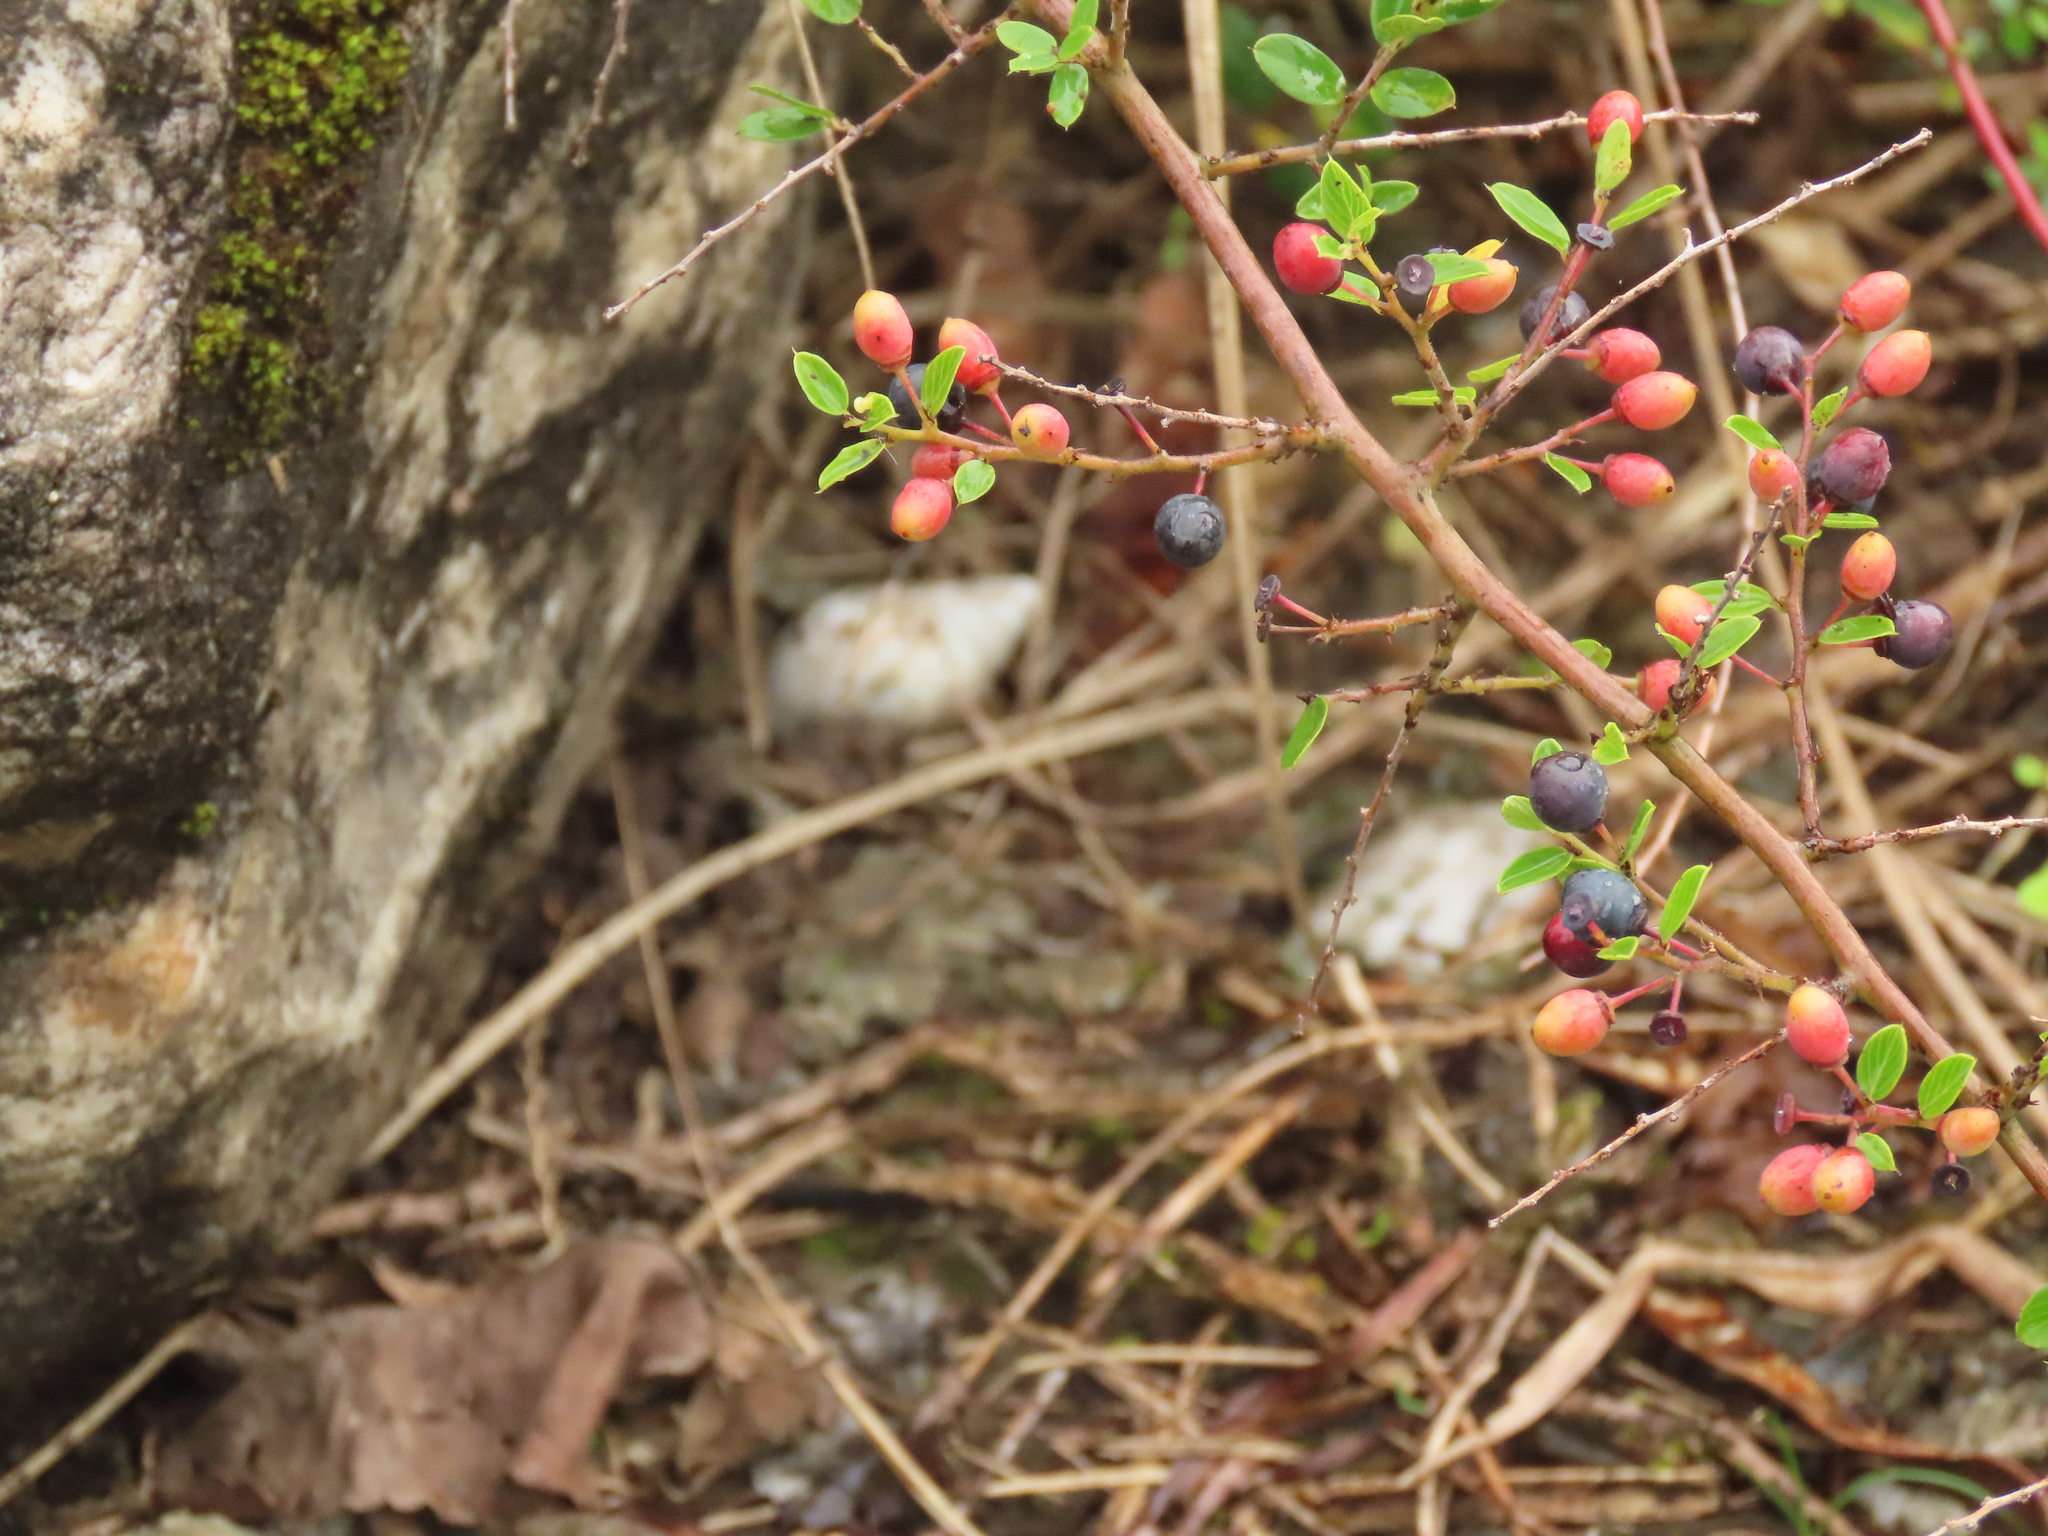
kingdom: Plantae
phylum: Tracheophyta
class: Magnoliopsida
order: Rosales
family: Rhamnaceae
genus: Berchemia
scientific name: Berchemia lineata
